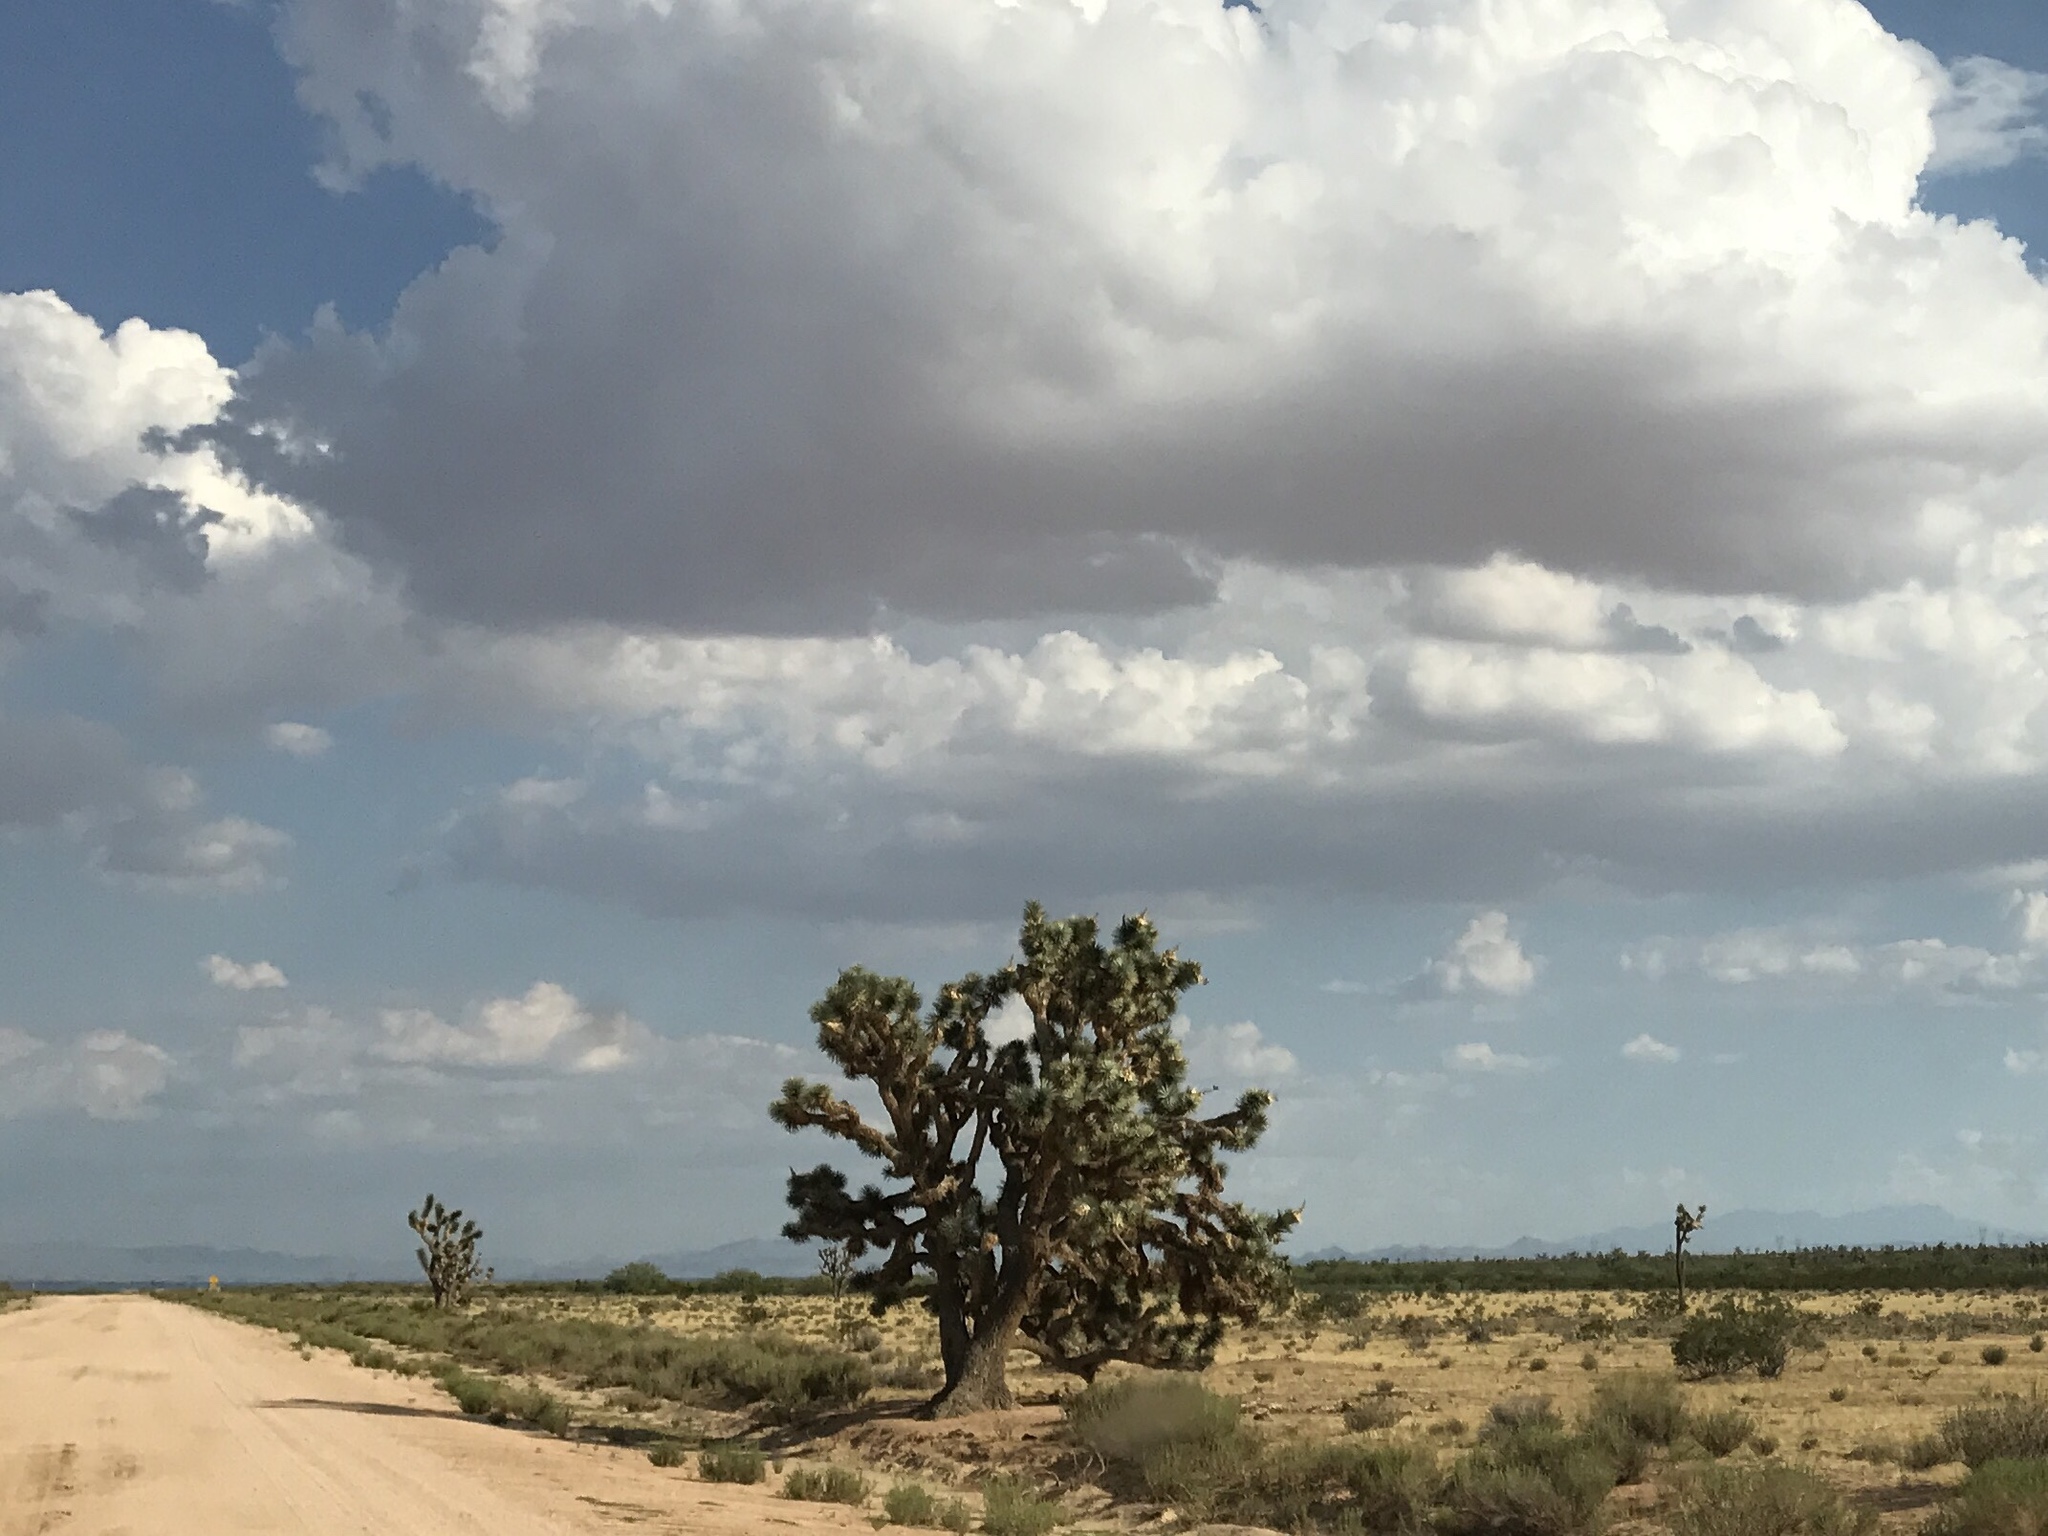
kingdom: Plantae
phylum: Tracheophyta
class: Liliopsida
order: Asparagales
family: Asparagaceae
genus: Yucca
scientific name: Yucca brevifolia
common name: Joshua tree
